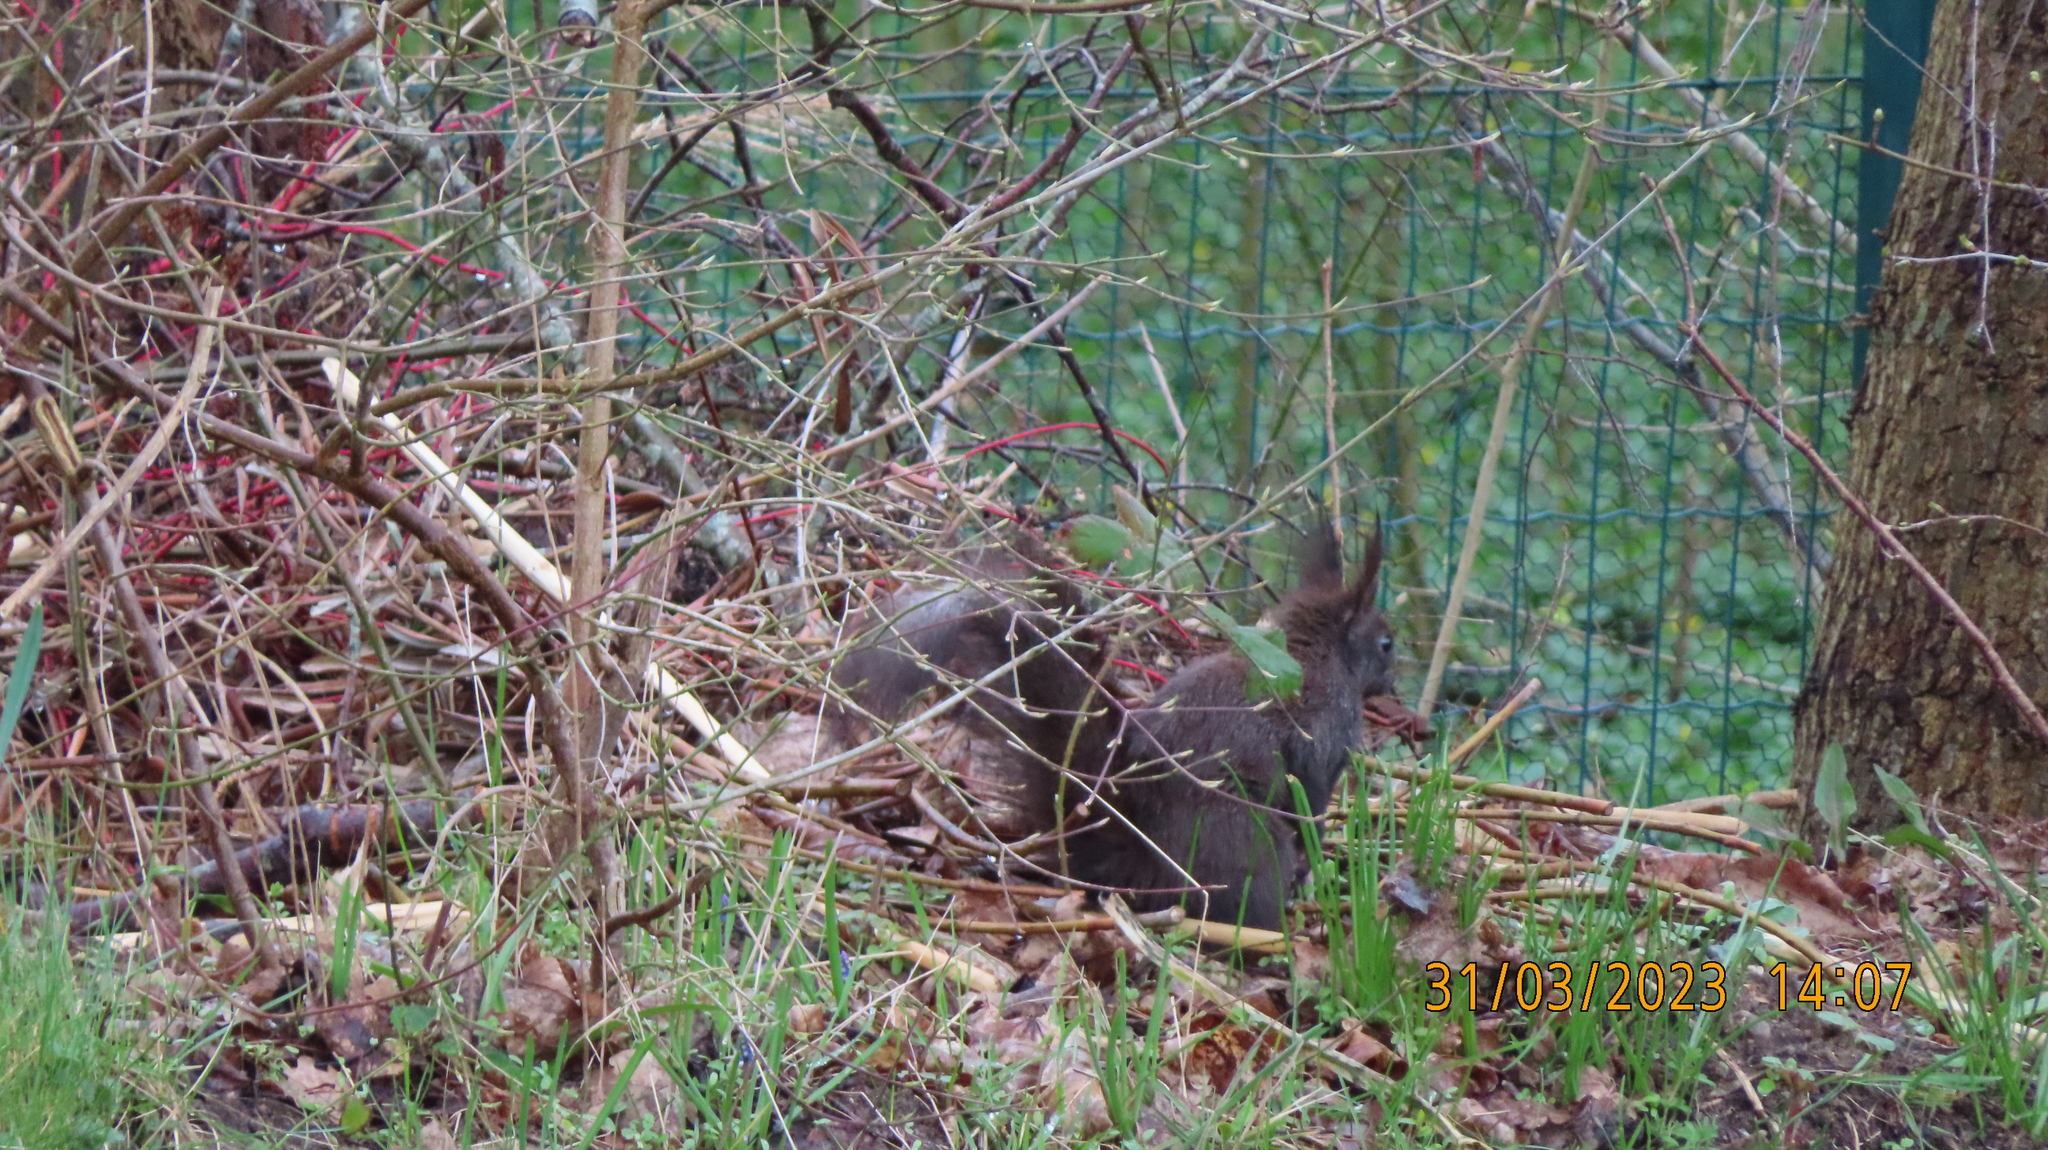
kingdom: Animalia
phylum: Chordata
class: Mammalia
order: Rodentia
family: Sciuridae
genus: Sciurus
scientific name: Sciurus vulgaris
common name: Eurasian red squirrel
